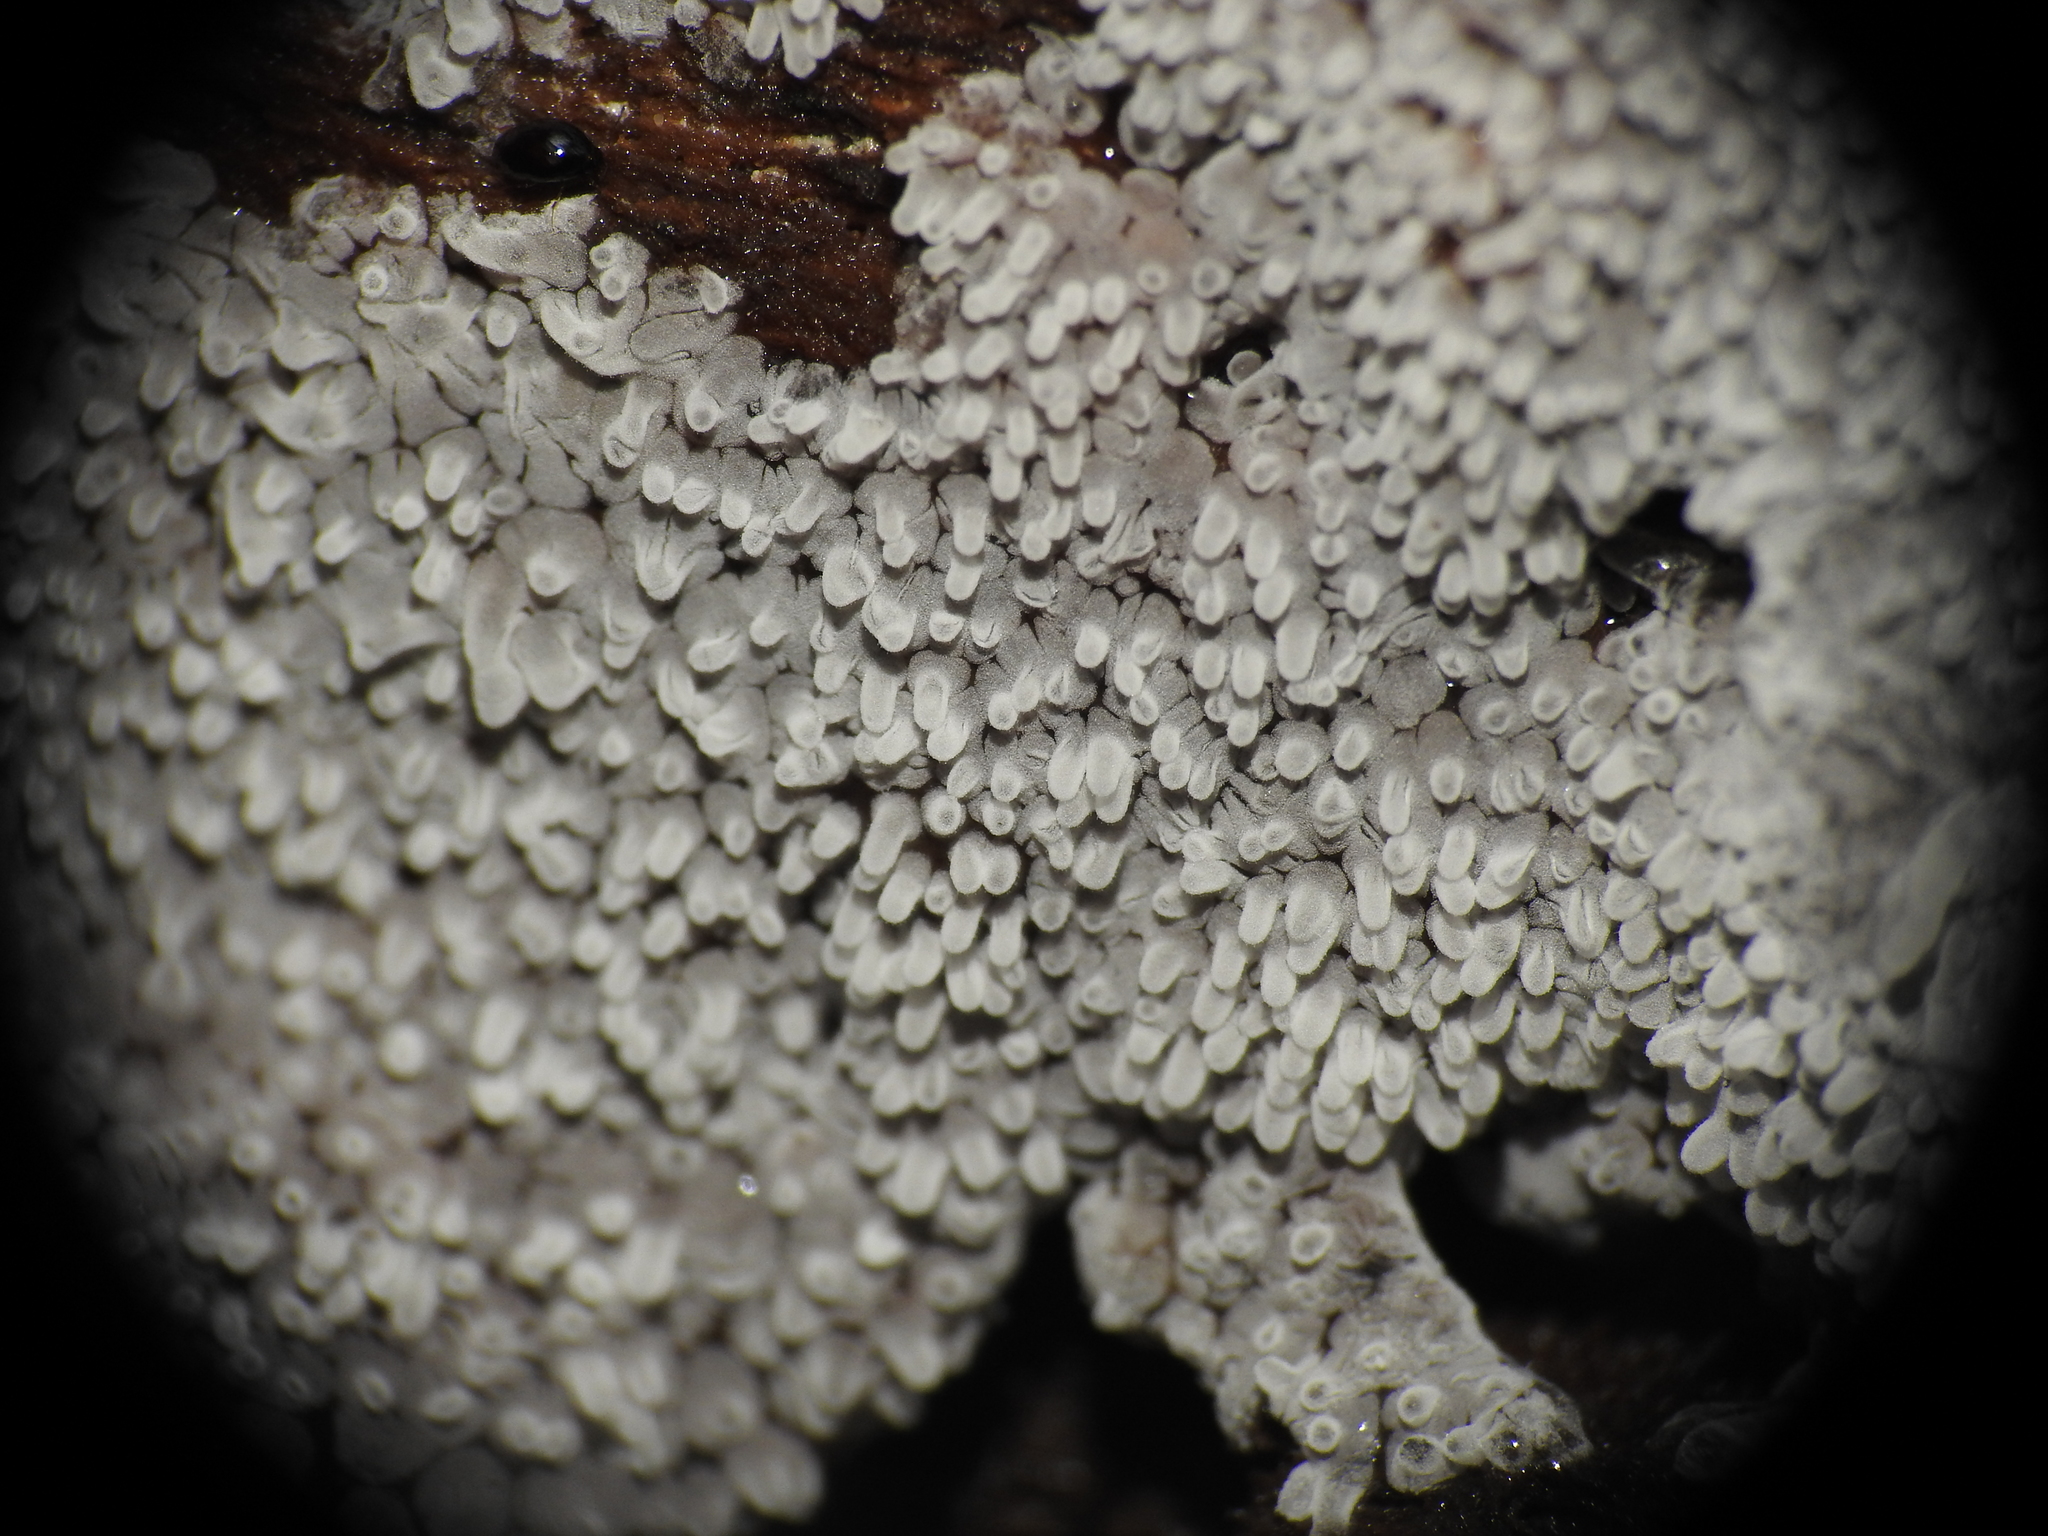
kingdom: Protozoa
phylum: Mycetozoa
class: Protosteliomycetes
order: Ceratiomyxales
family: Ceratiomyxaceae
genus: Ceratiomyxa
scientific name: Ceratiomyxa fruticulosa
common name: Honeycomb coral slime mold
